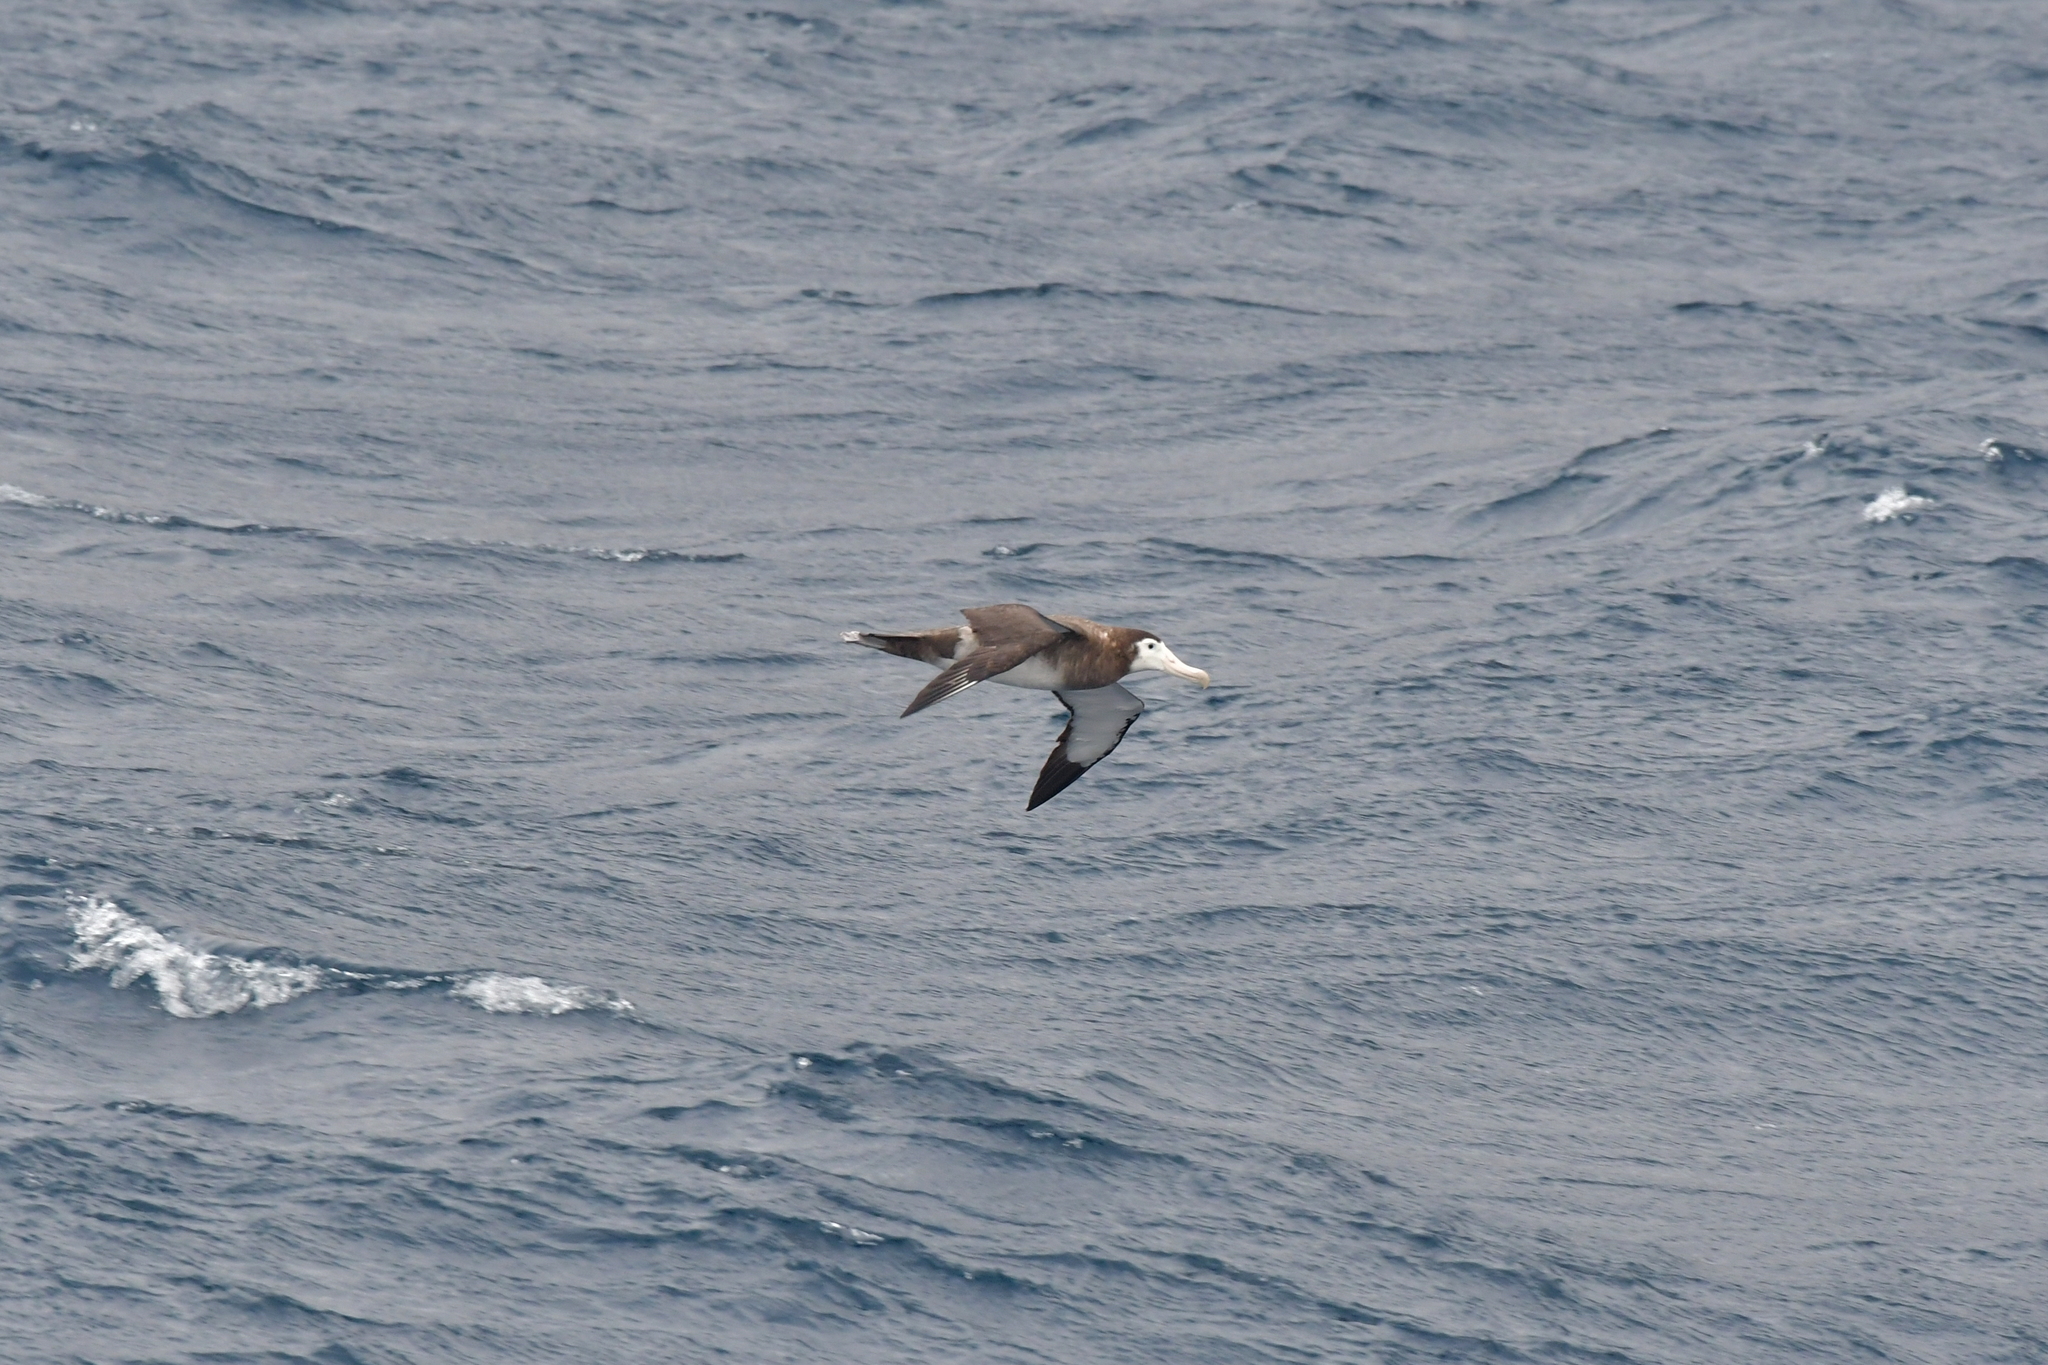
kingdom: Animalia
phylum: Chordata
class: Aves
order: Procellariiformes
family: Diomedeidae
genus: Diomedea
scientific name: Diomedea antipodensis
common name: Antipodean albatross
